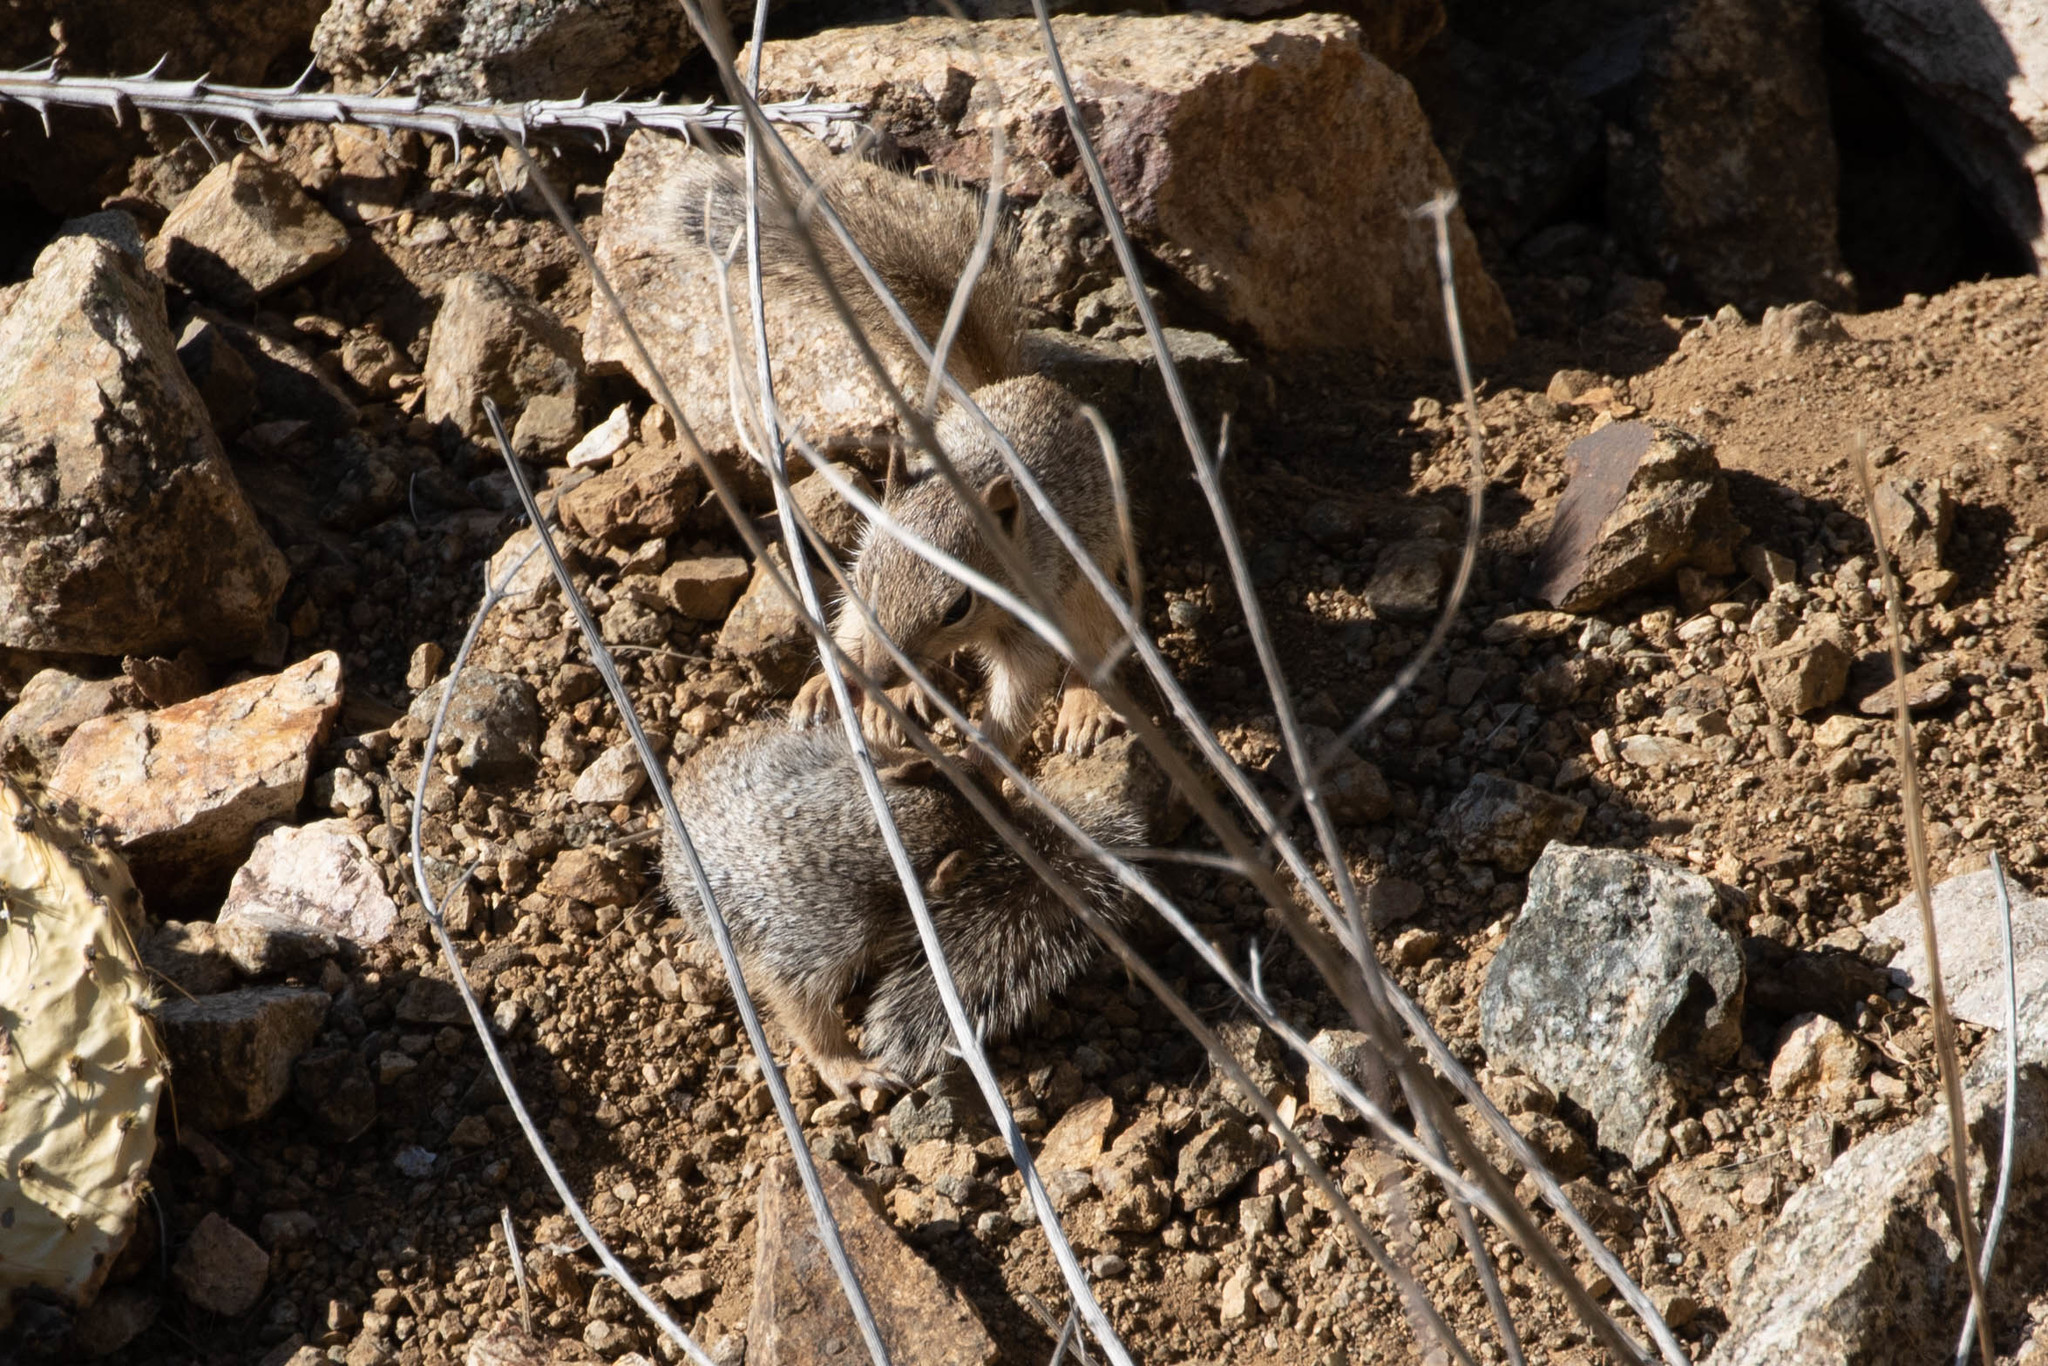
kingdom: Animalia
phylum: Chordata
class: Mammalia
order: Rodentia
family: Sciuridae
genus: Otospermophilus
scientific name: Otospermophilus variegatus
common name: Rock squirrel
